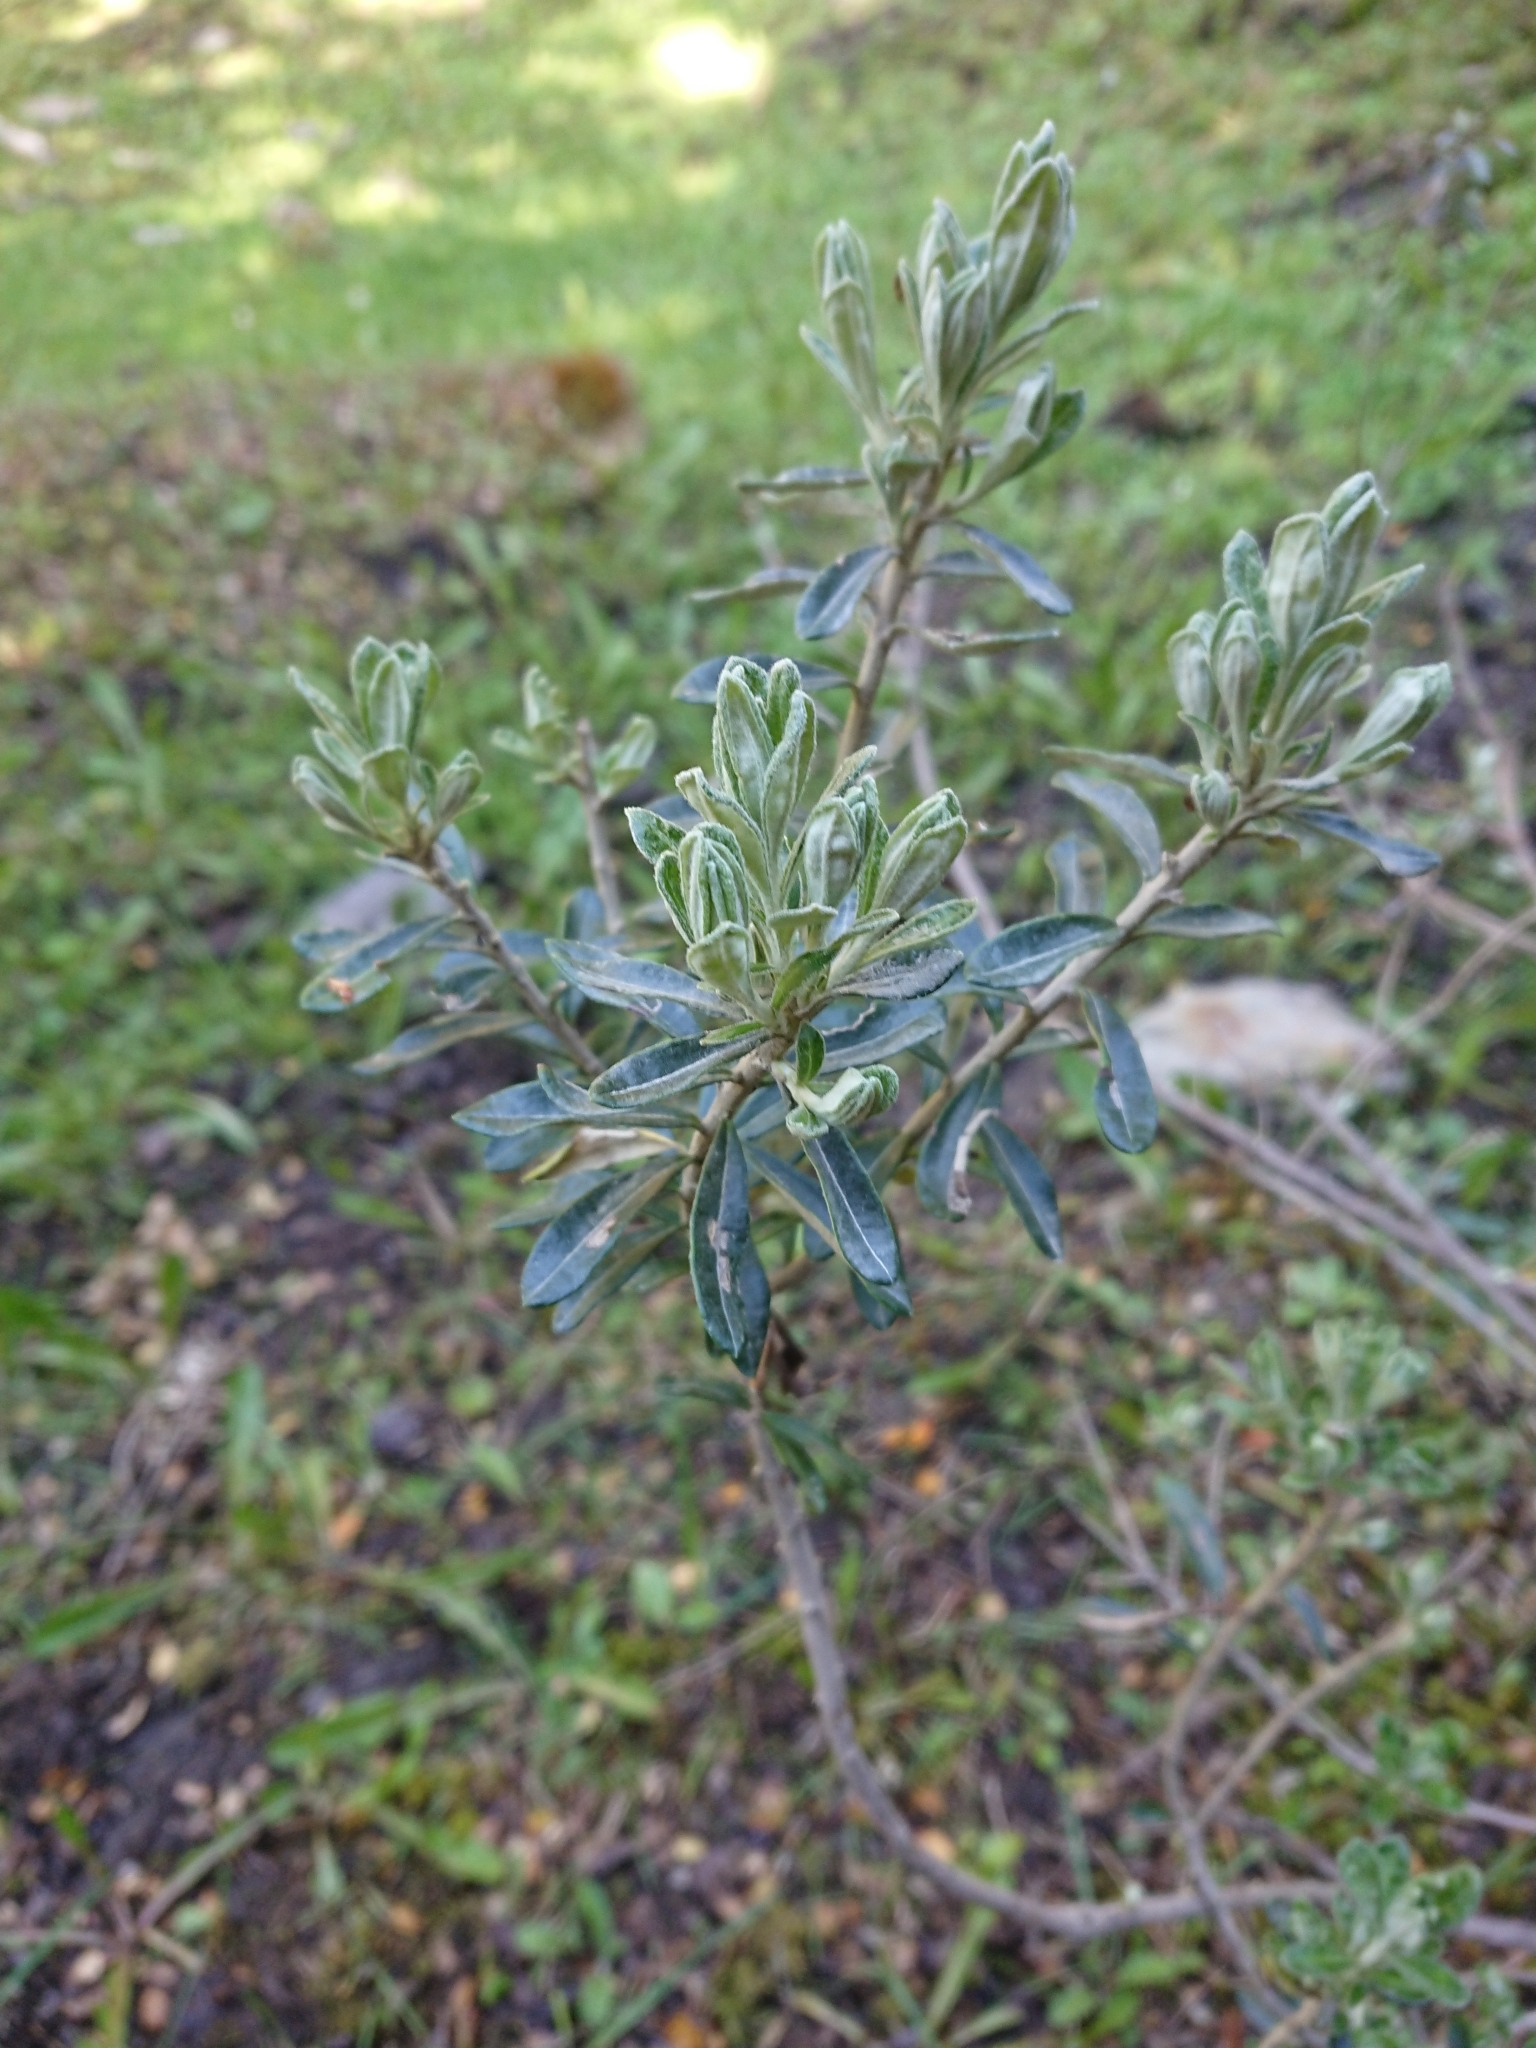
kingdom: Plantae
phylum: Tracheophyta
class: Magnoliopsida
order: Asterales
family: Asteraceae
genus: Chiliotrichum
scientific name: Chiliotrichum diffusum
